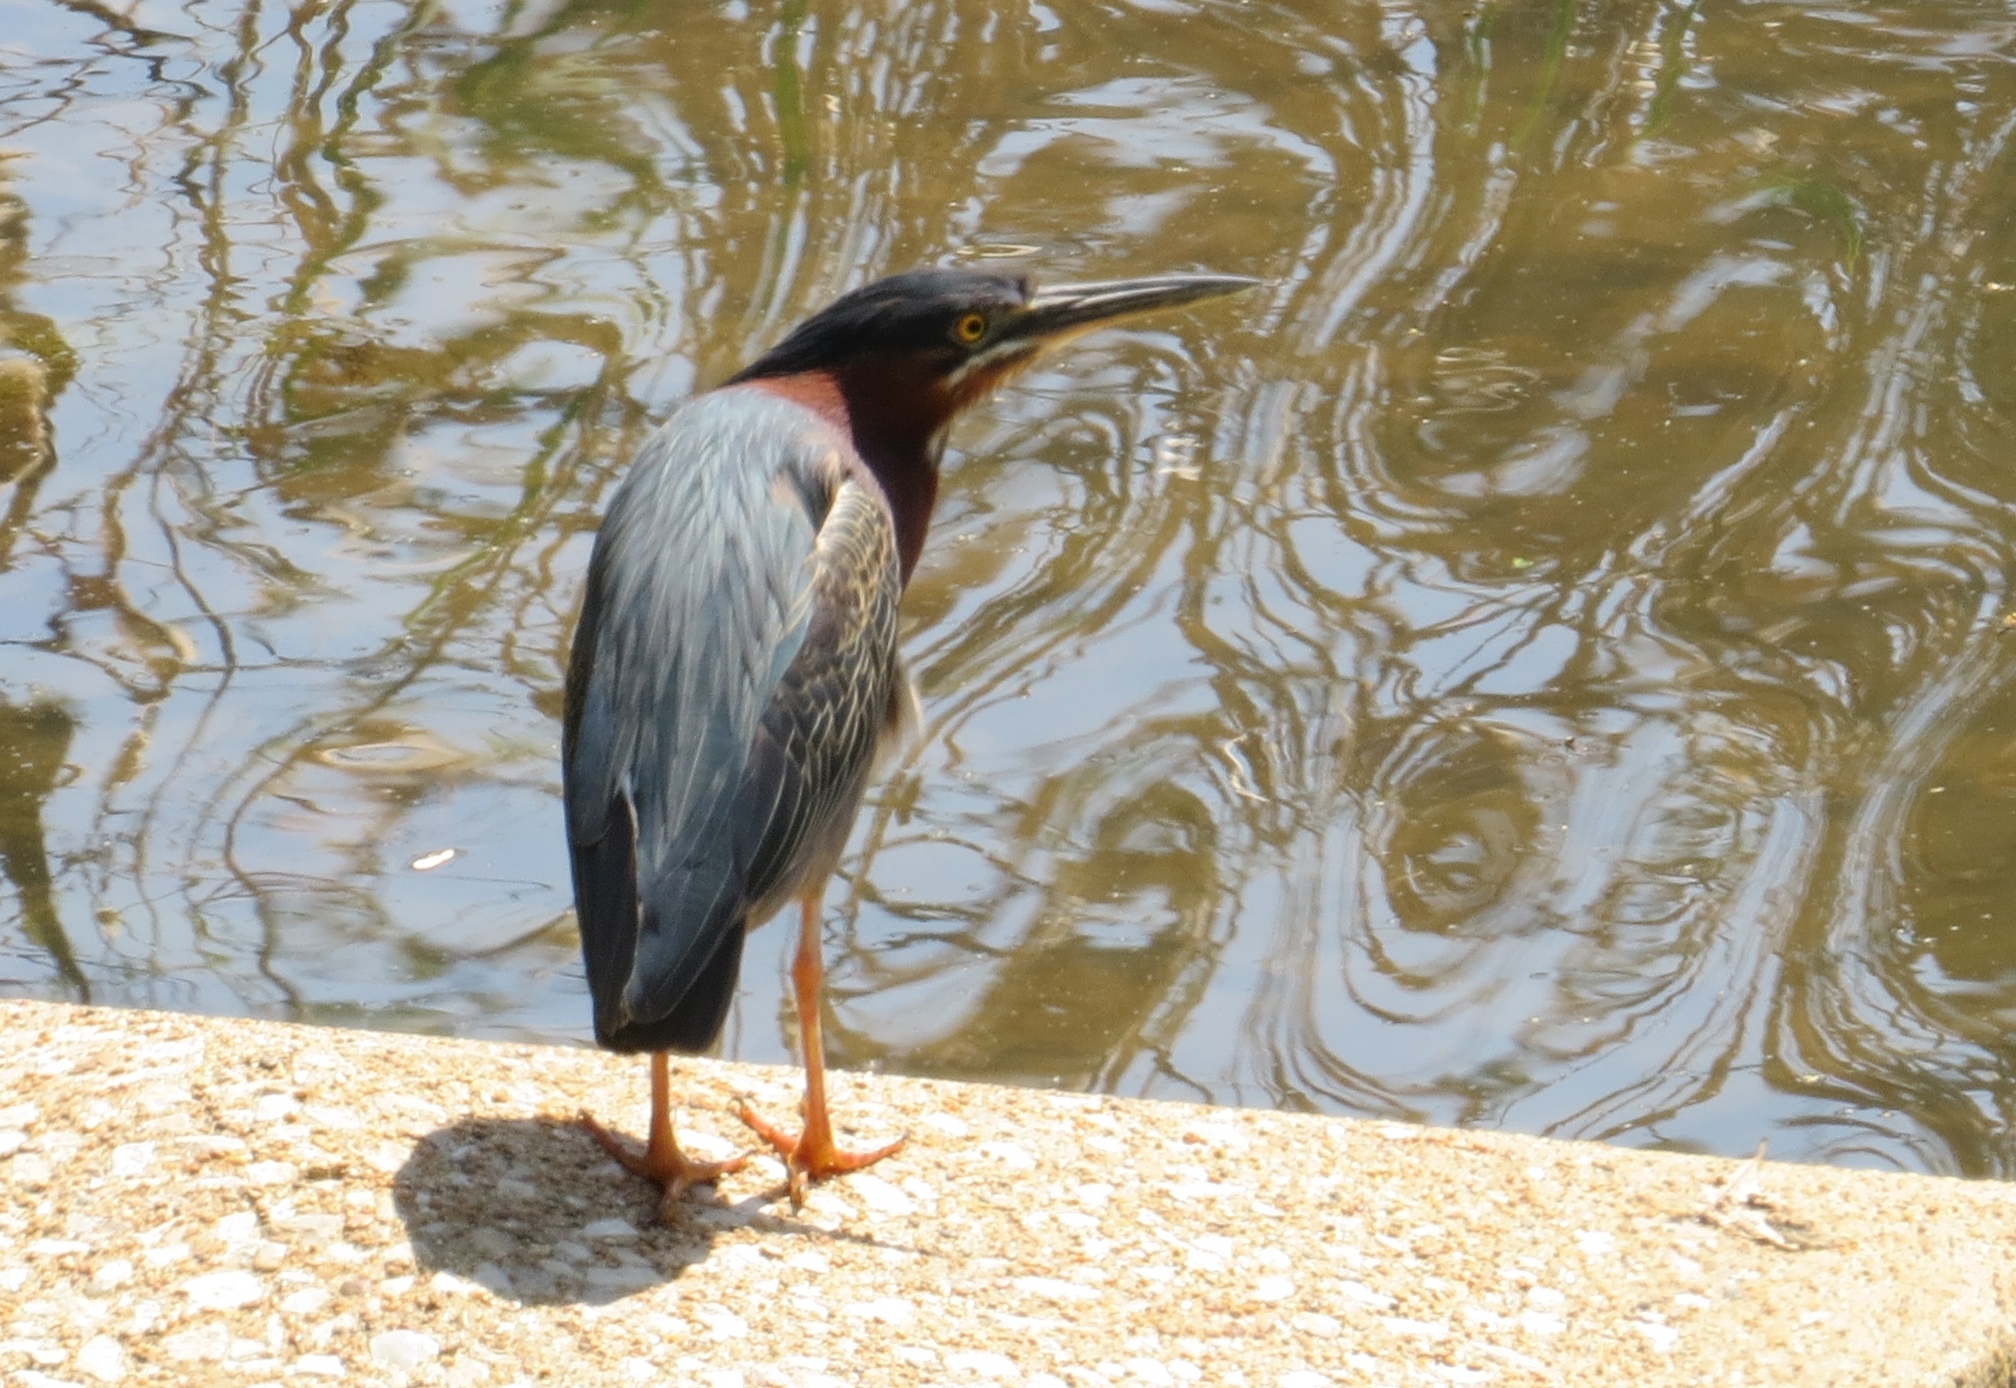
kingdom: Animalia
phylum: Chordata
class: Aves
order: Pelecaniformes
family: Ardeidae
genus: Butorides
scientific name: Butorides virescens
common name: Green heron
